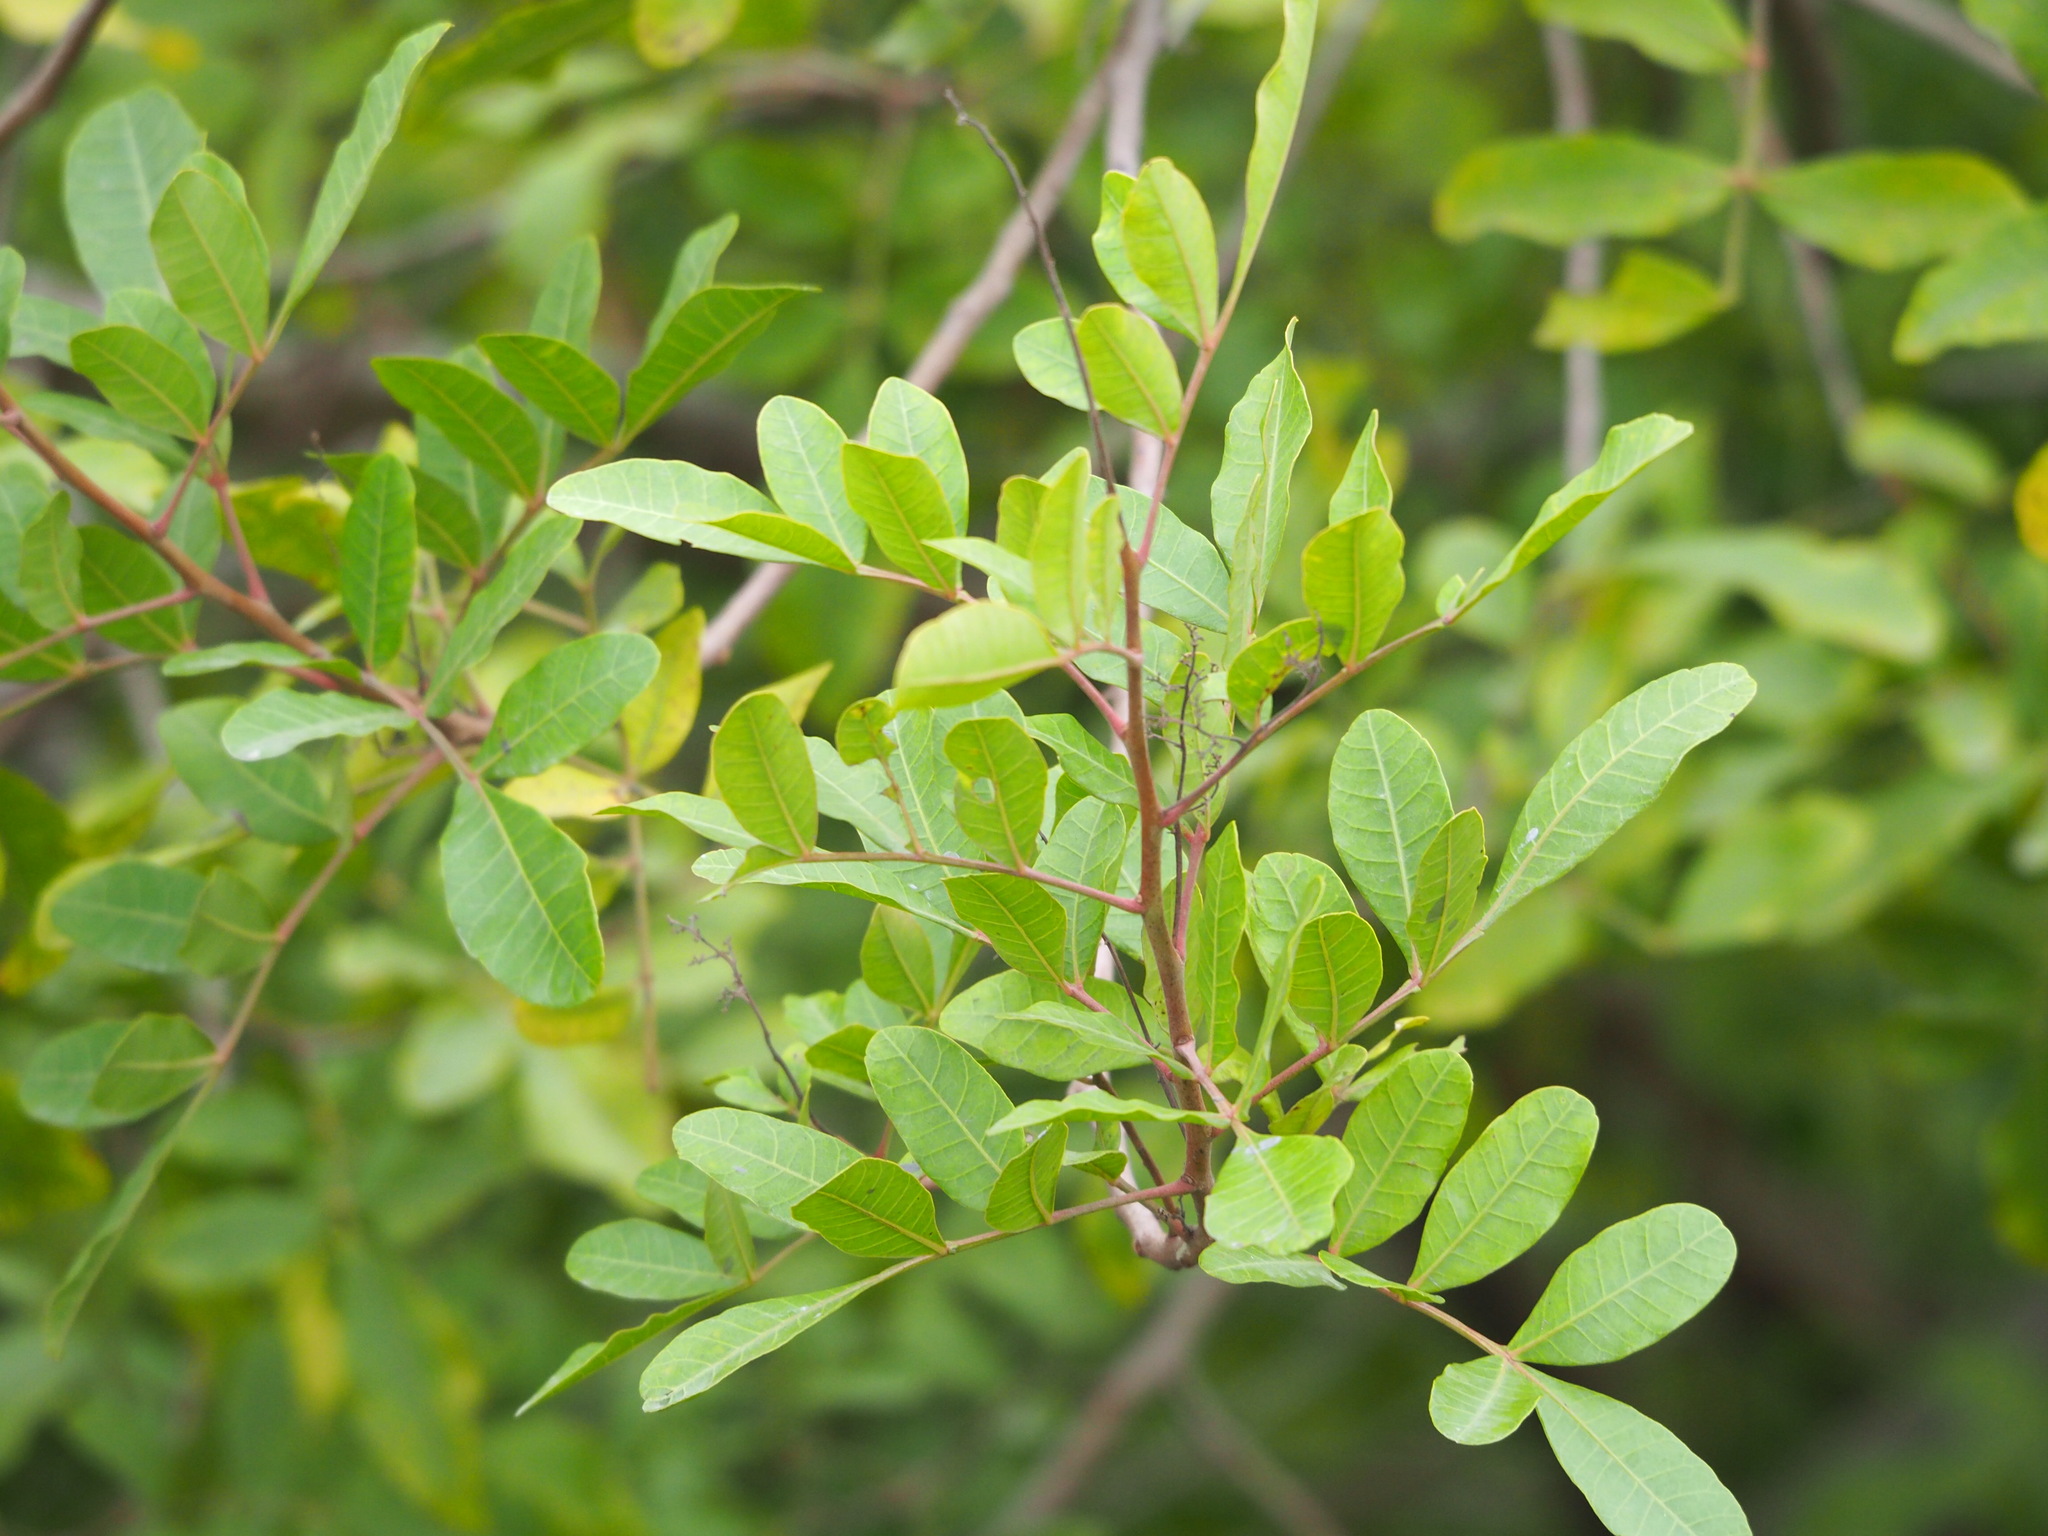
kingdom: Plantae
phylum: Tracheophyta
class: Magnoliopsida
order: Sapindales
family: Anacardiaceae
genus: Schinus
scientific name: Schinus terebinthifolia
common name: Brazilian peppertree
